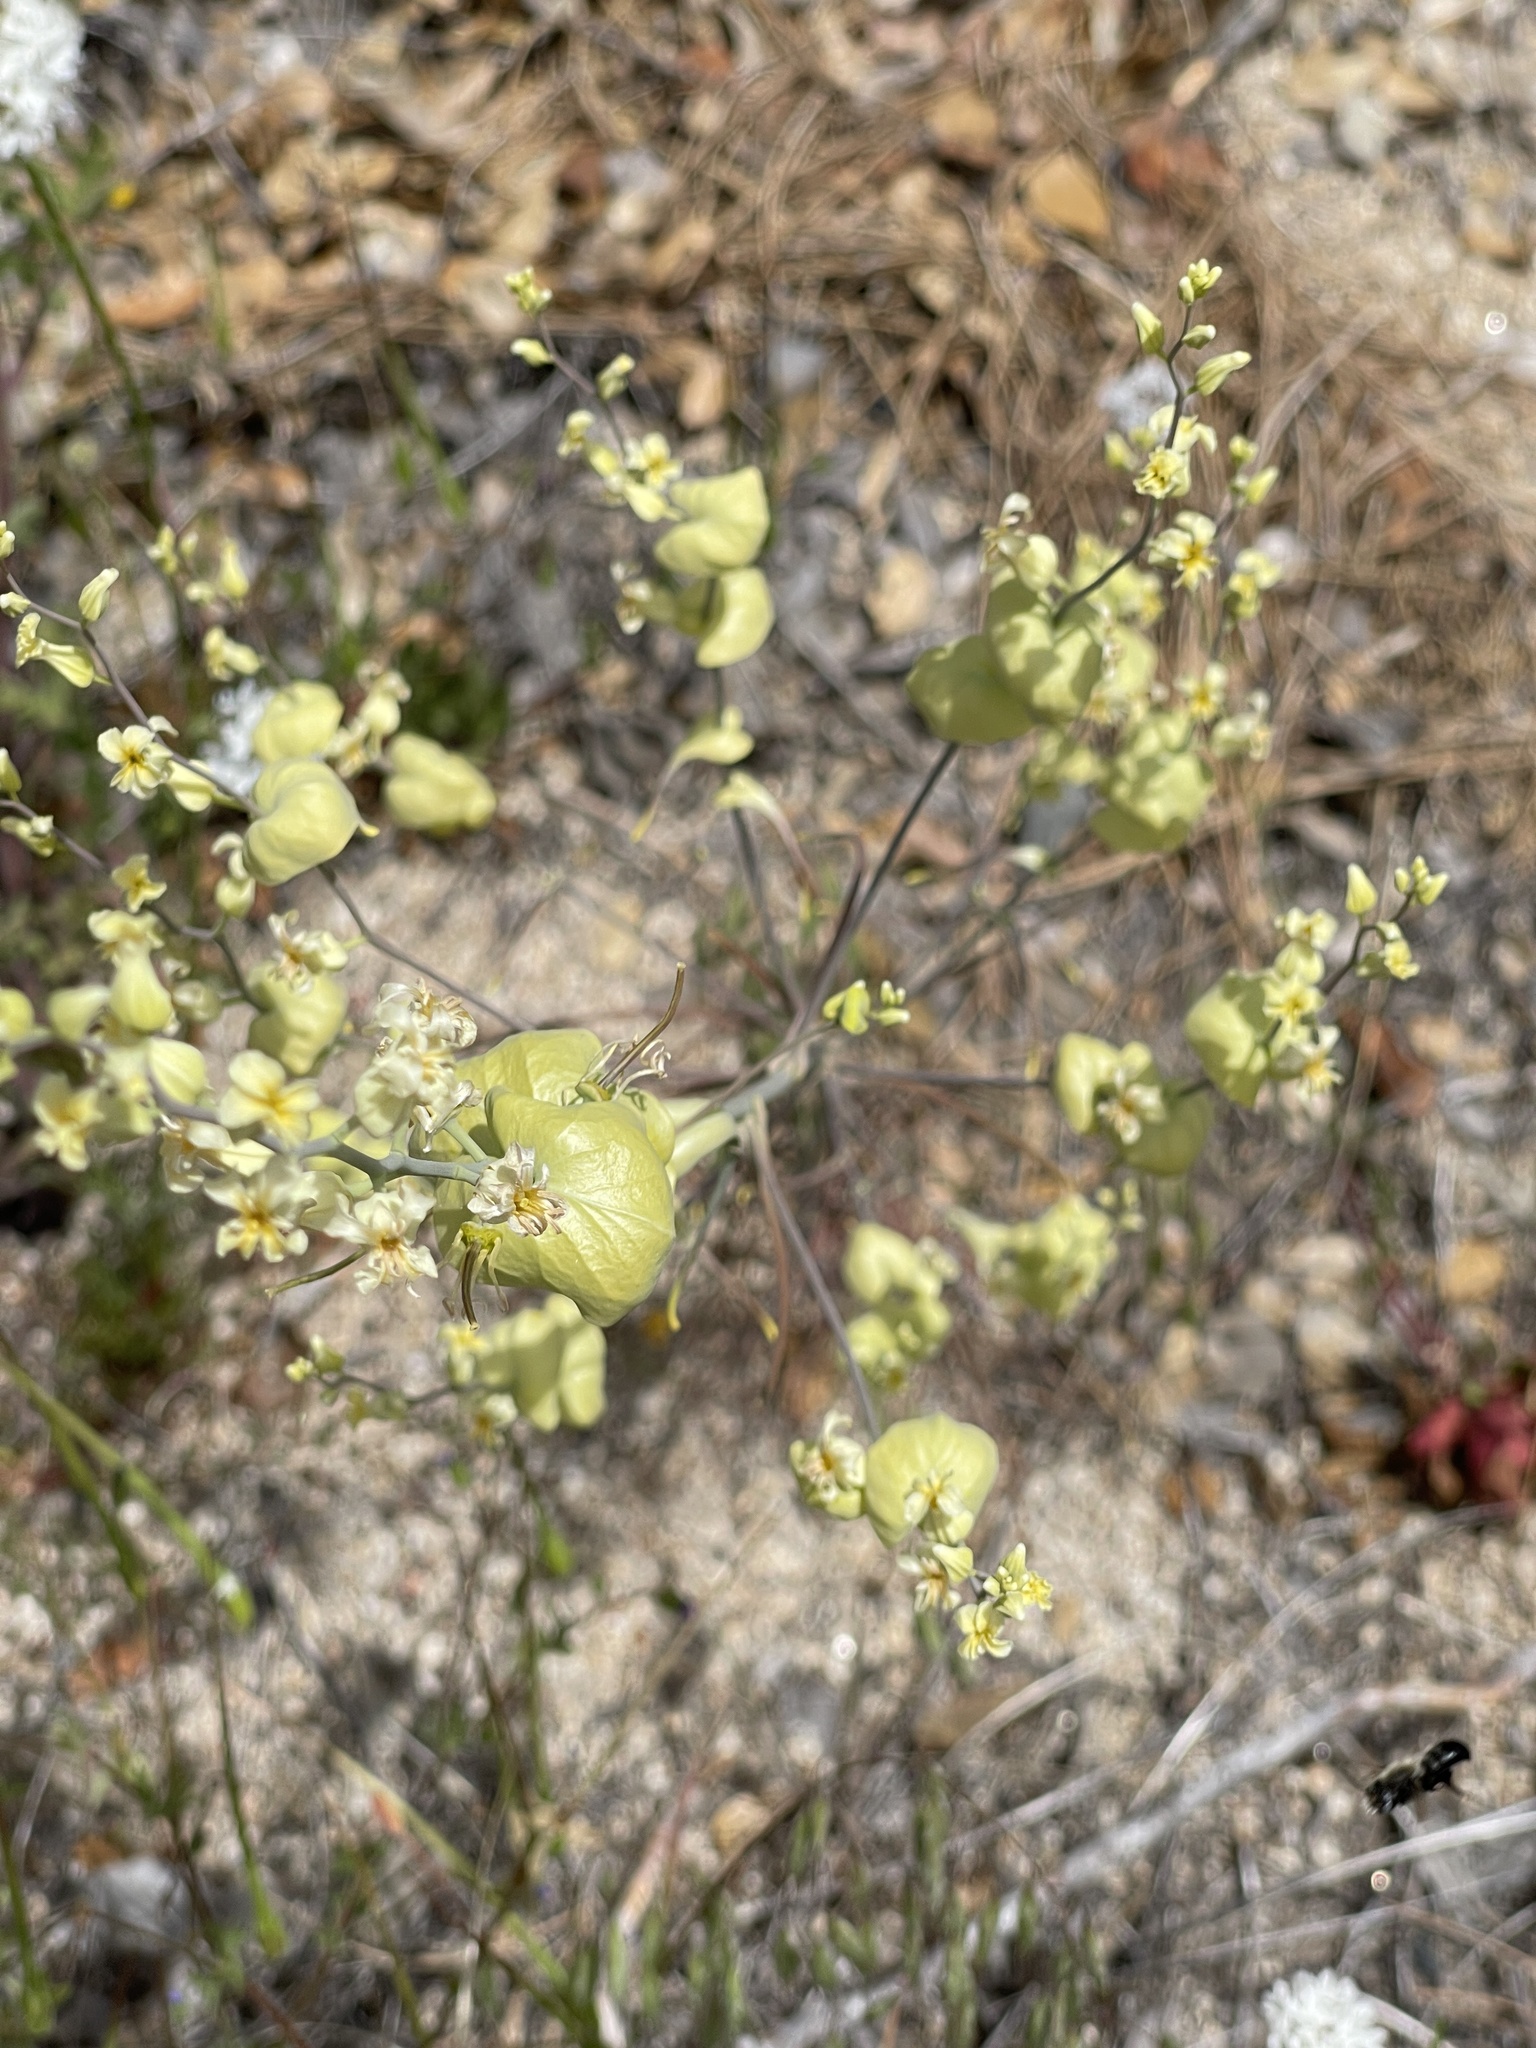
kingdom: Plantae
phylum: Tracheophyta
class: Magnoliopsida
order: Brassicales
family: Brassicaceae
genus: Streptanthus
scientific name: Streptanthus diversifolius
